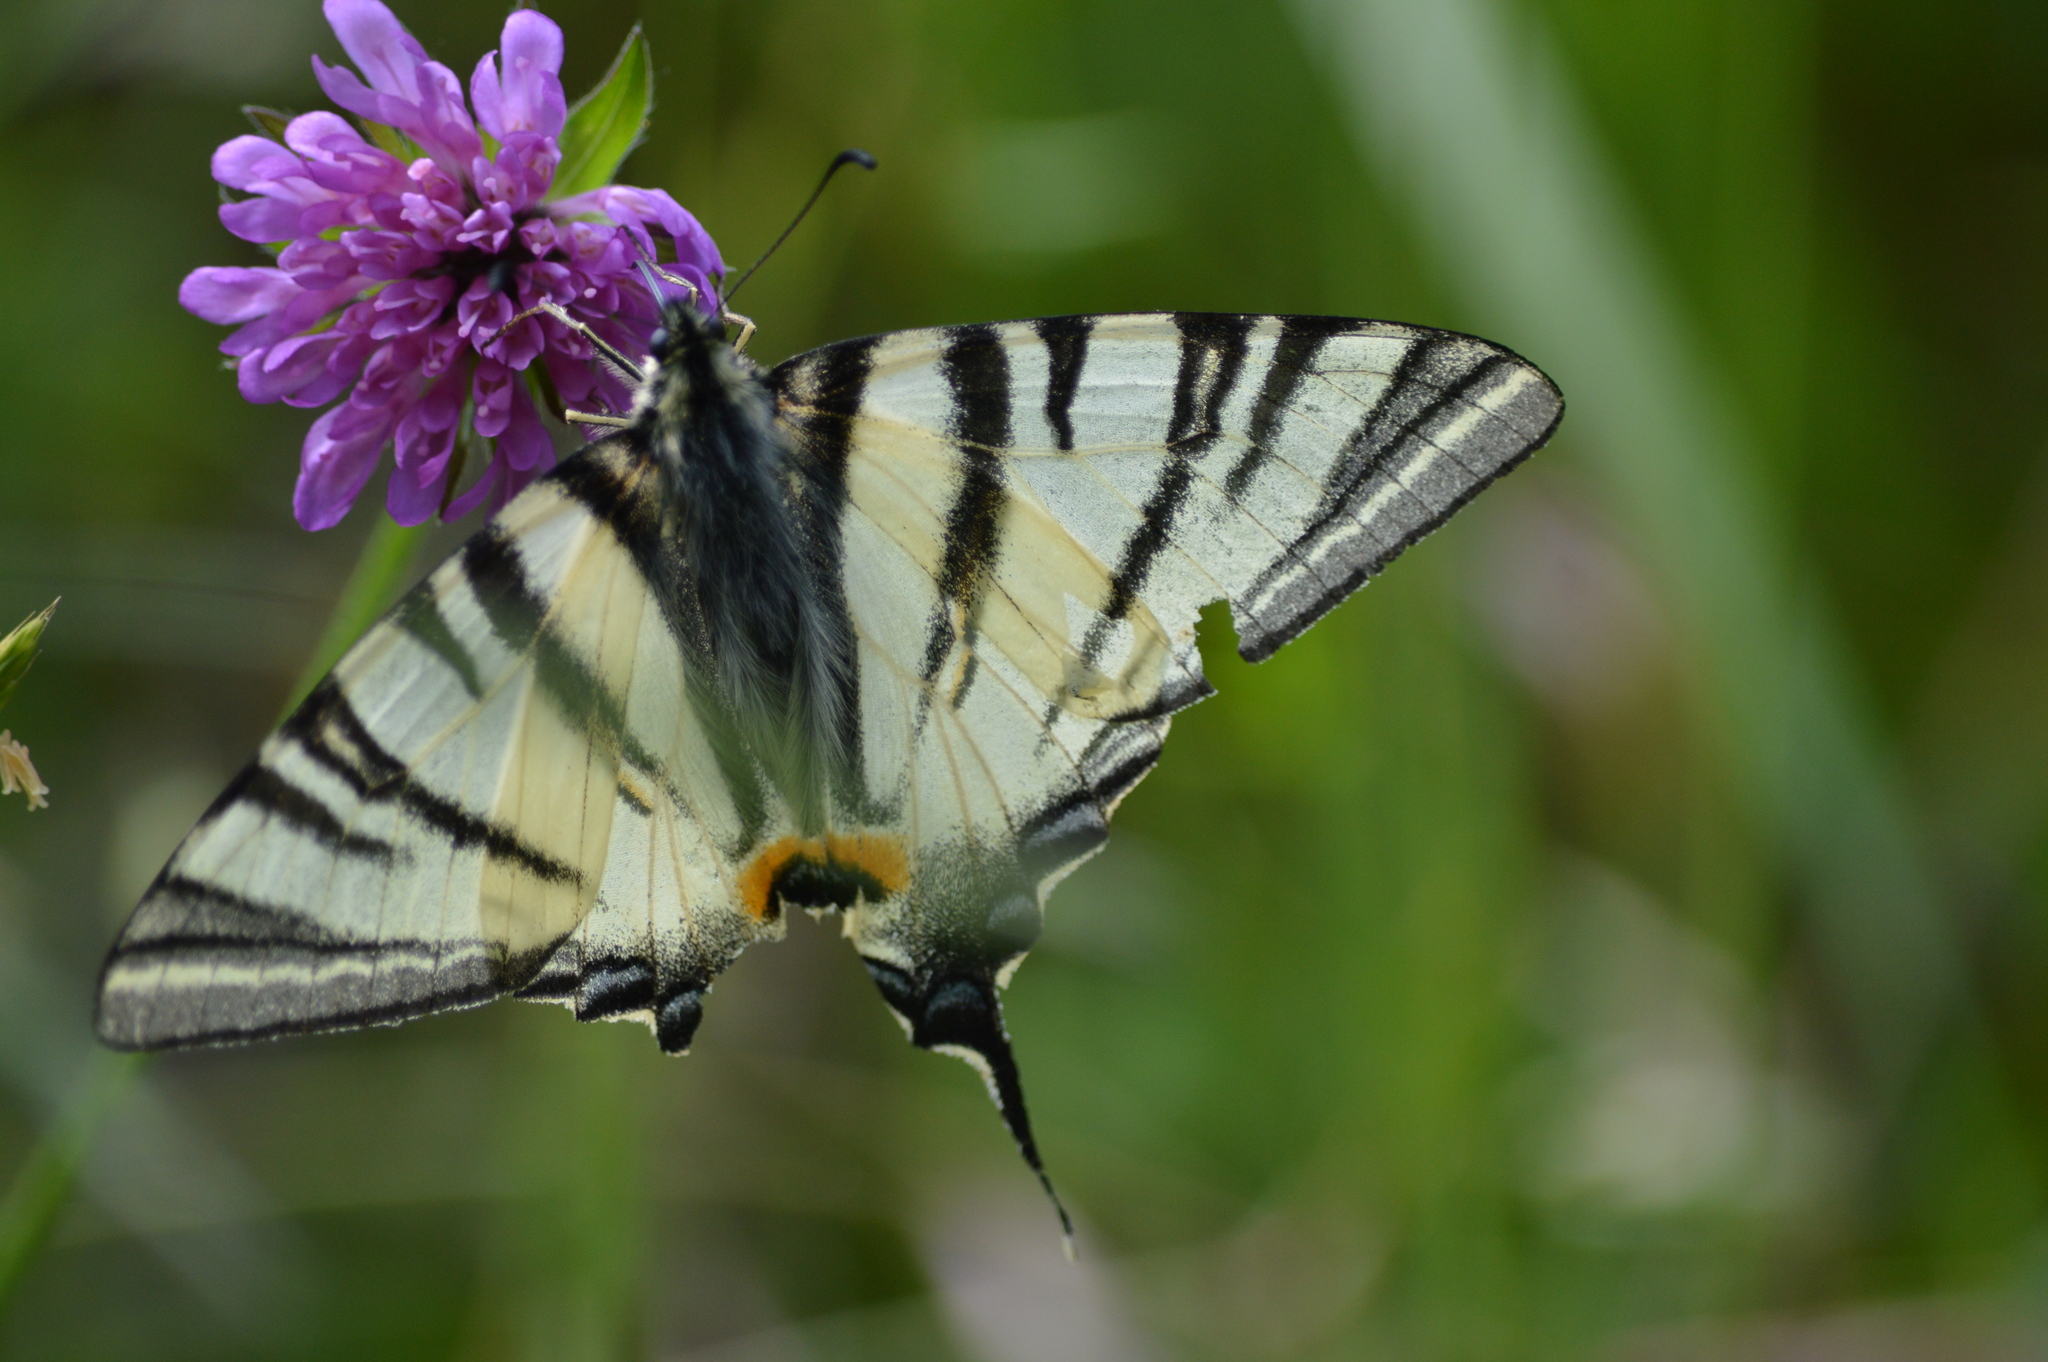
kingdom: Animalia
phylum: Arthropoda
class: Insecta
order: Lepidoptera
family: Papilionidae
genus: Iphiclides
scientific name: Iphiclides podalirius
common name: Scarce swallowtail
